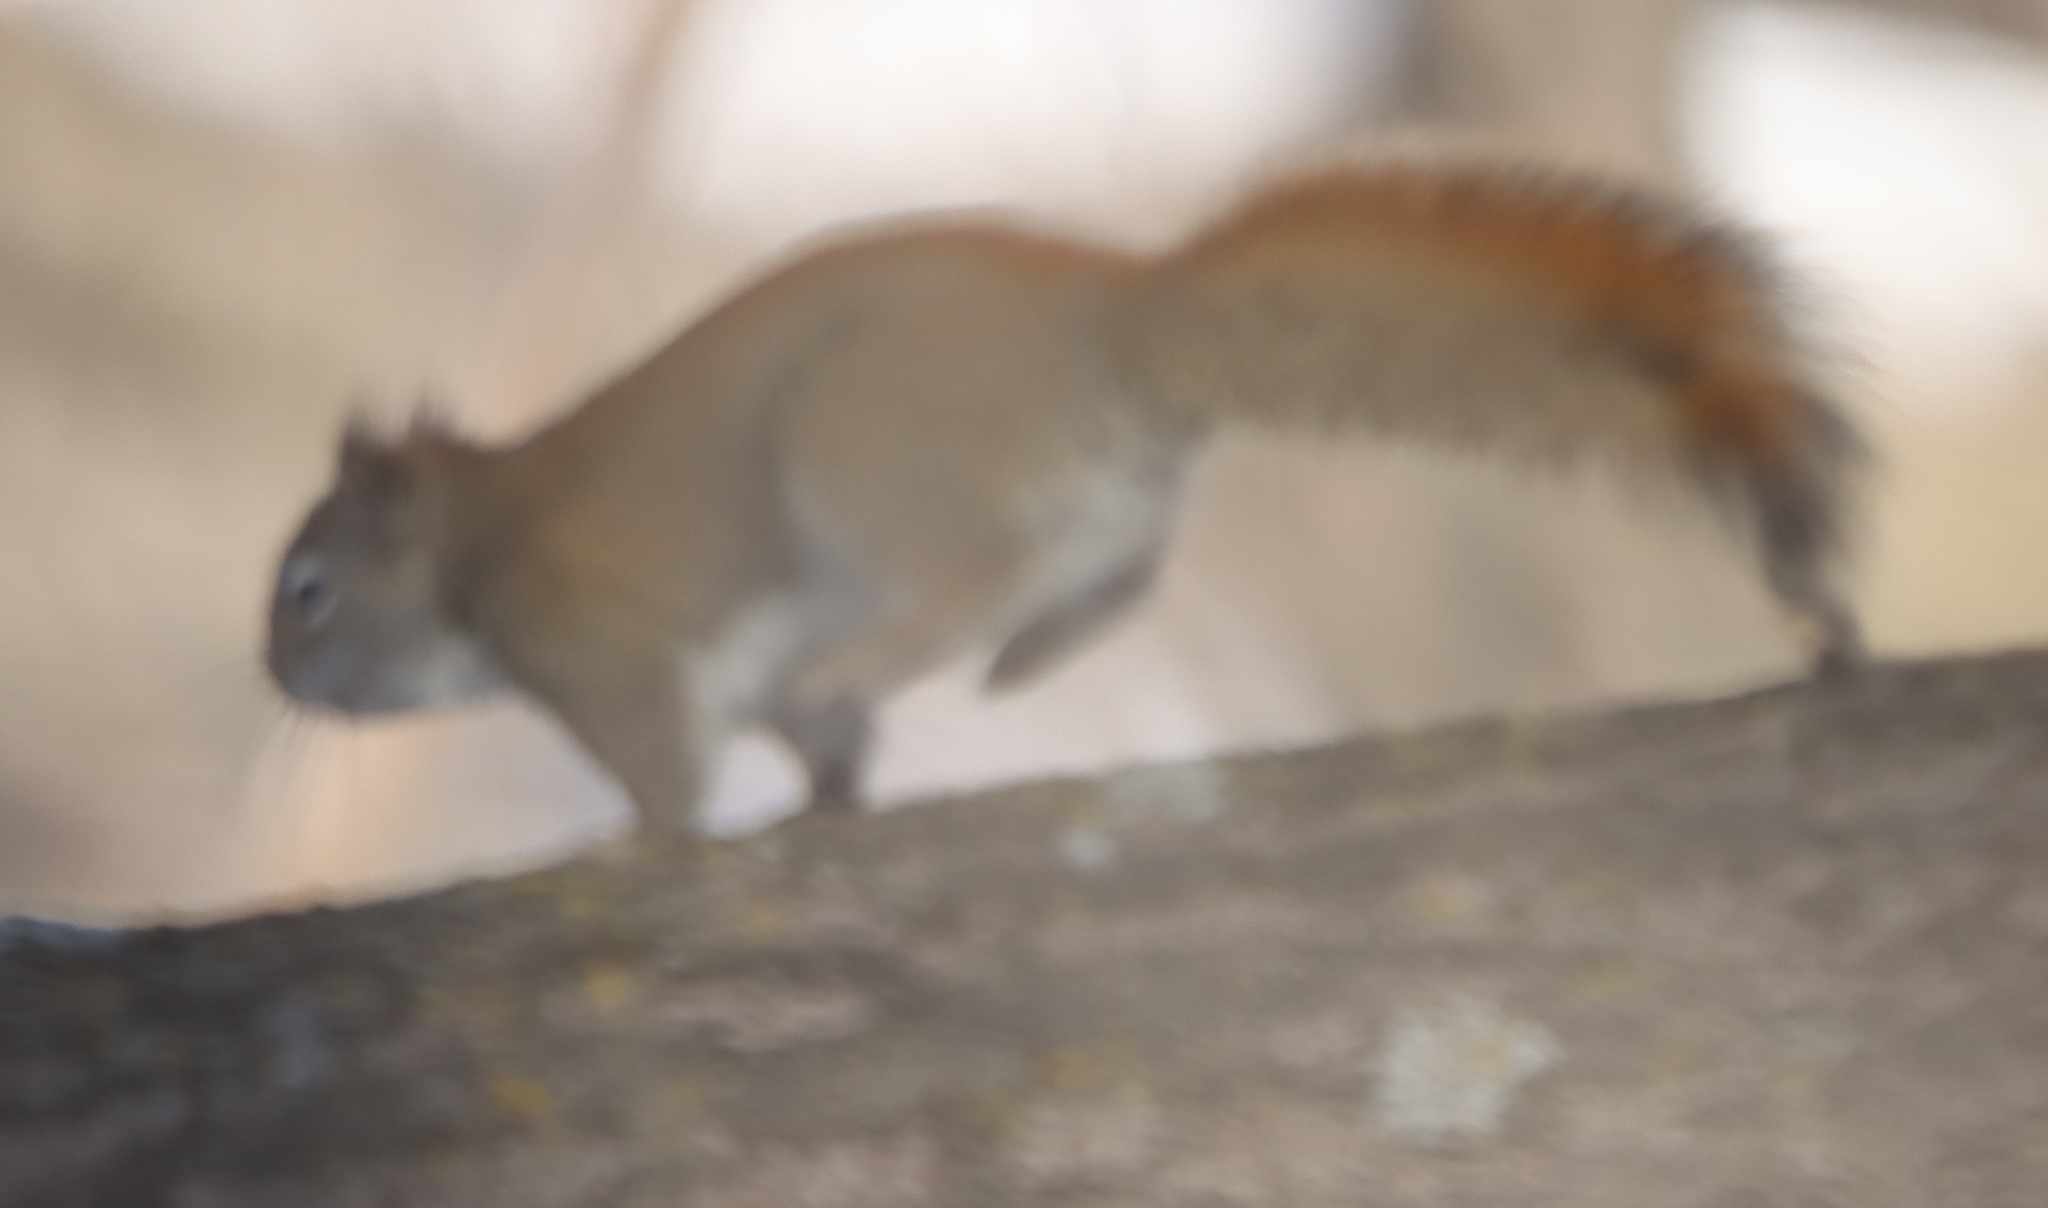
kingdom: Animalia
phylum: Chordata
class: Mammalia
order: Rodentia
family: Sciuridae
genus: Tamiasciurus
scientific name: Tamiasciurus hudsonicus
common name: Red squirrel
